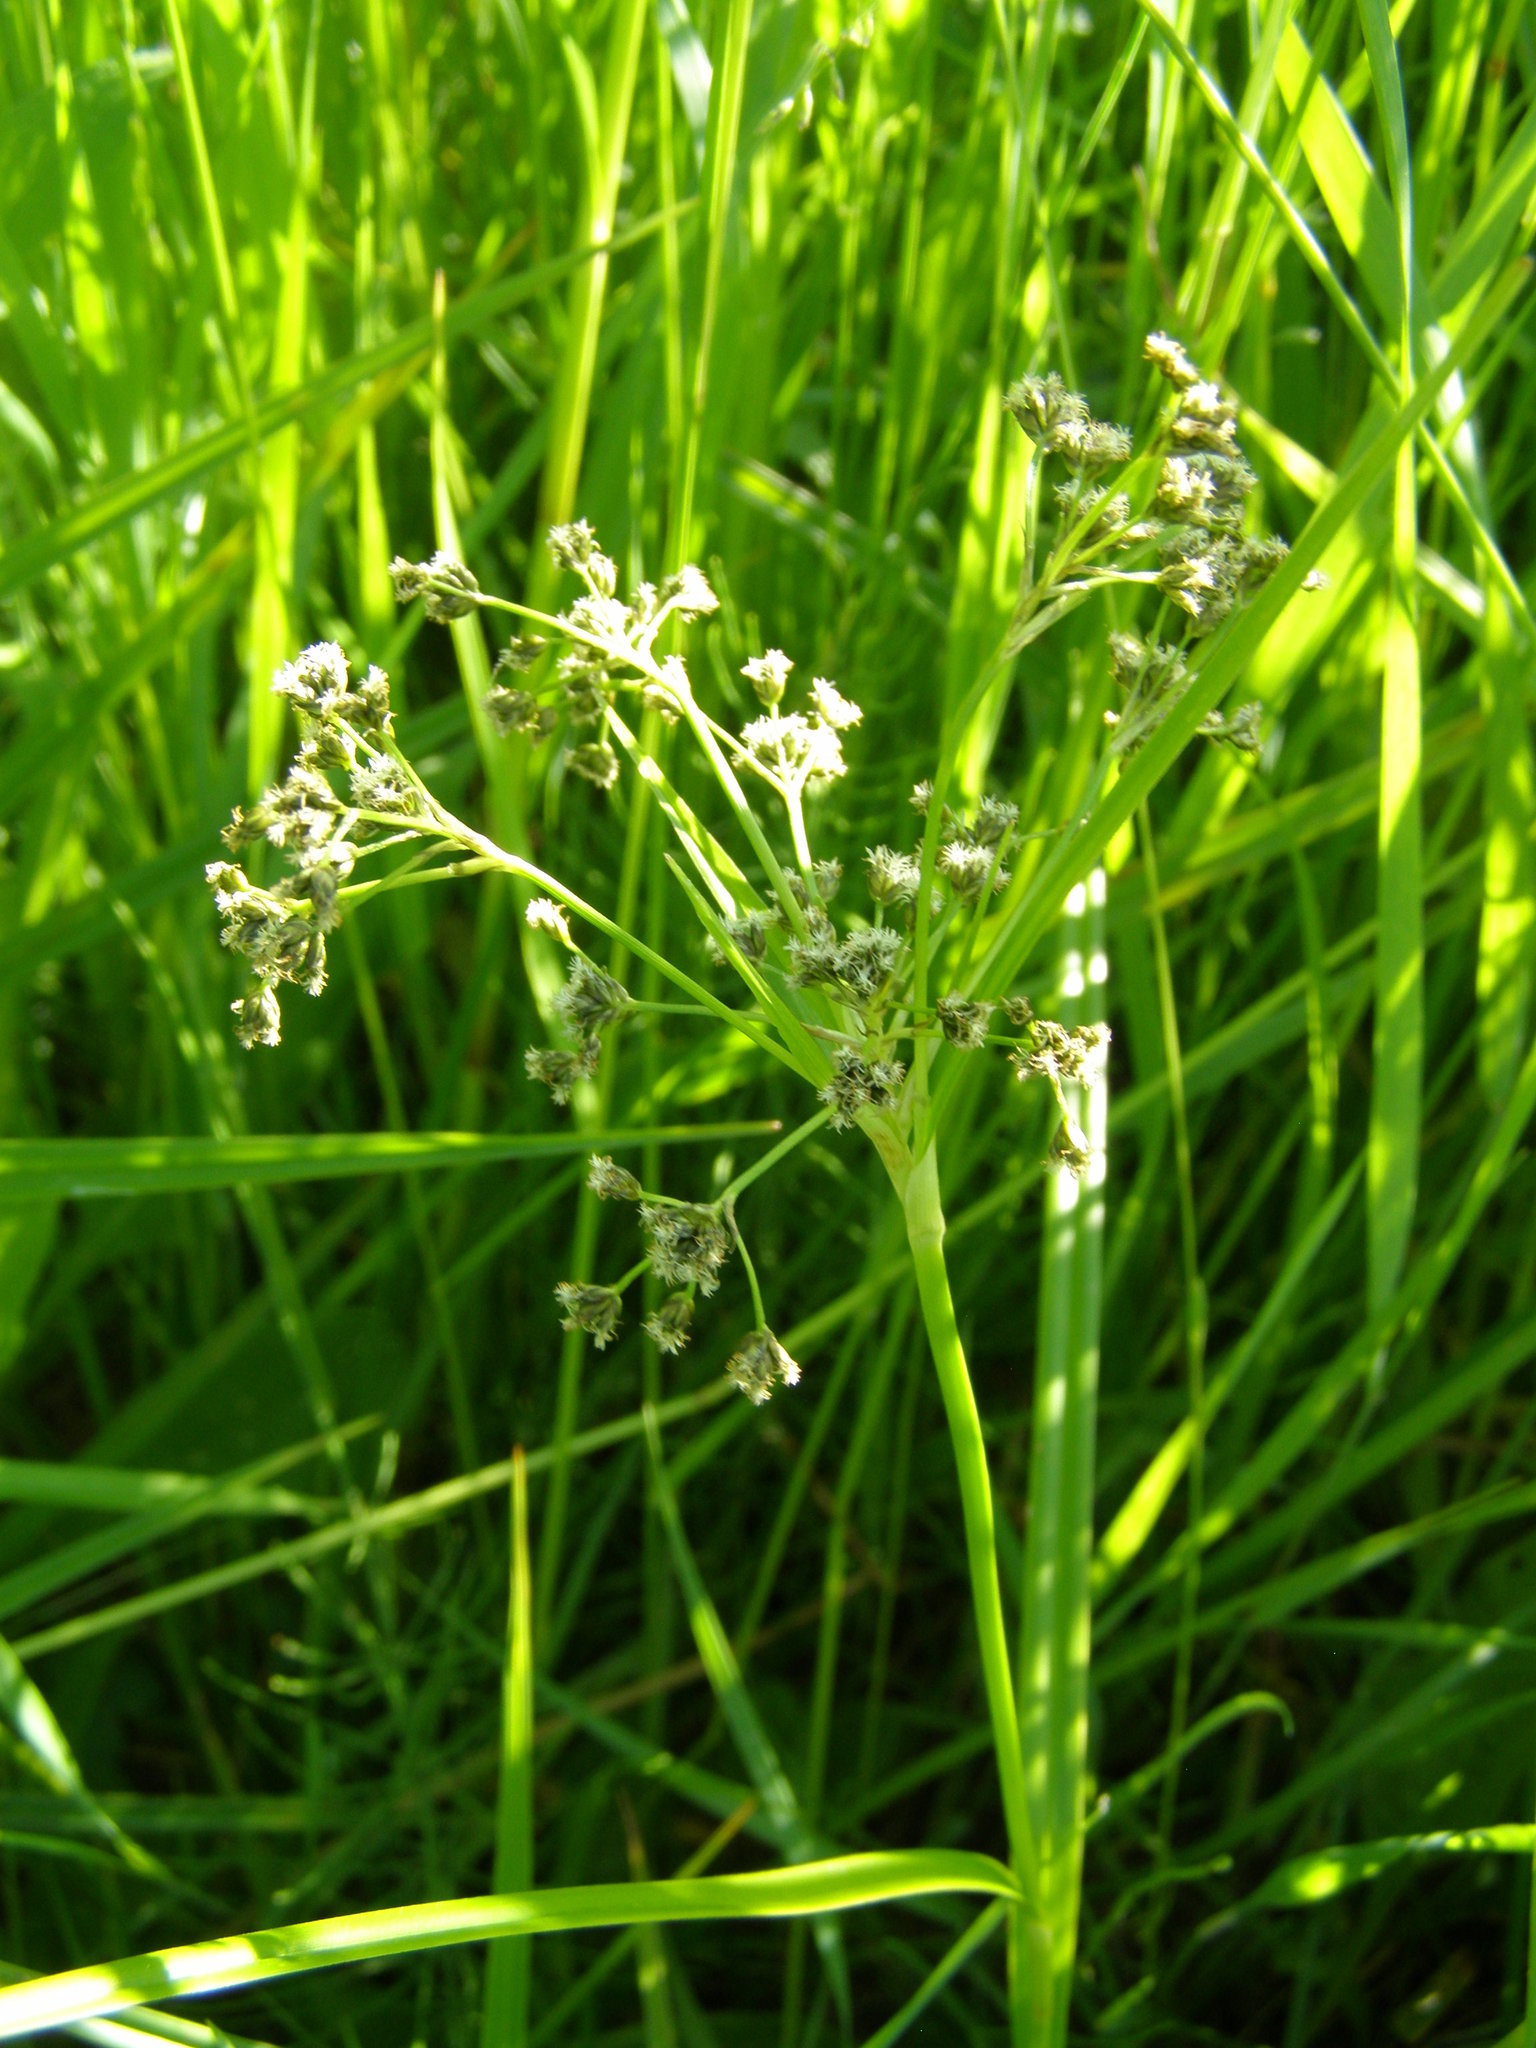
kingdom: Plantae
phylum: Tracheophyta
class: Liliopsida
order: Poales
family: Cyperaceae
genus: Scirpus
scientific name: Scirpus sylvaticus
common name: Wood club-rush
